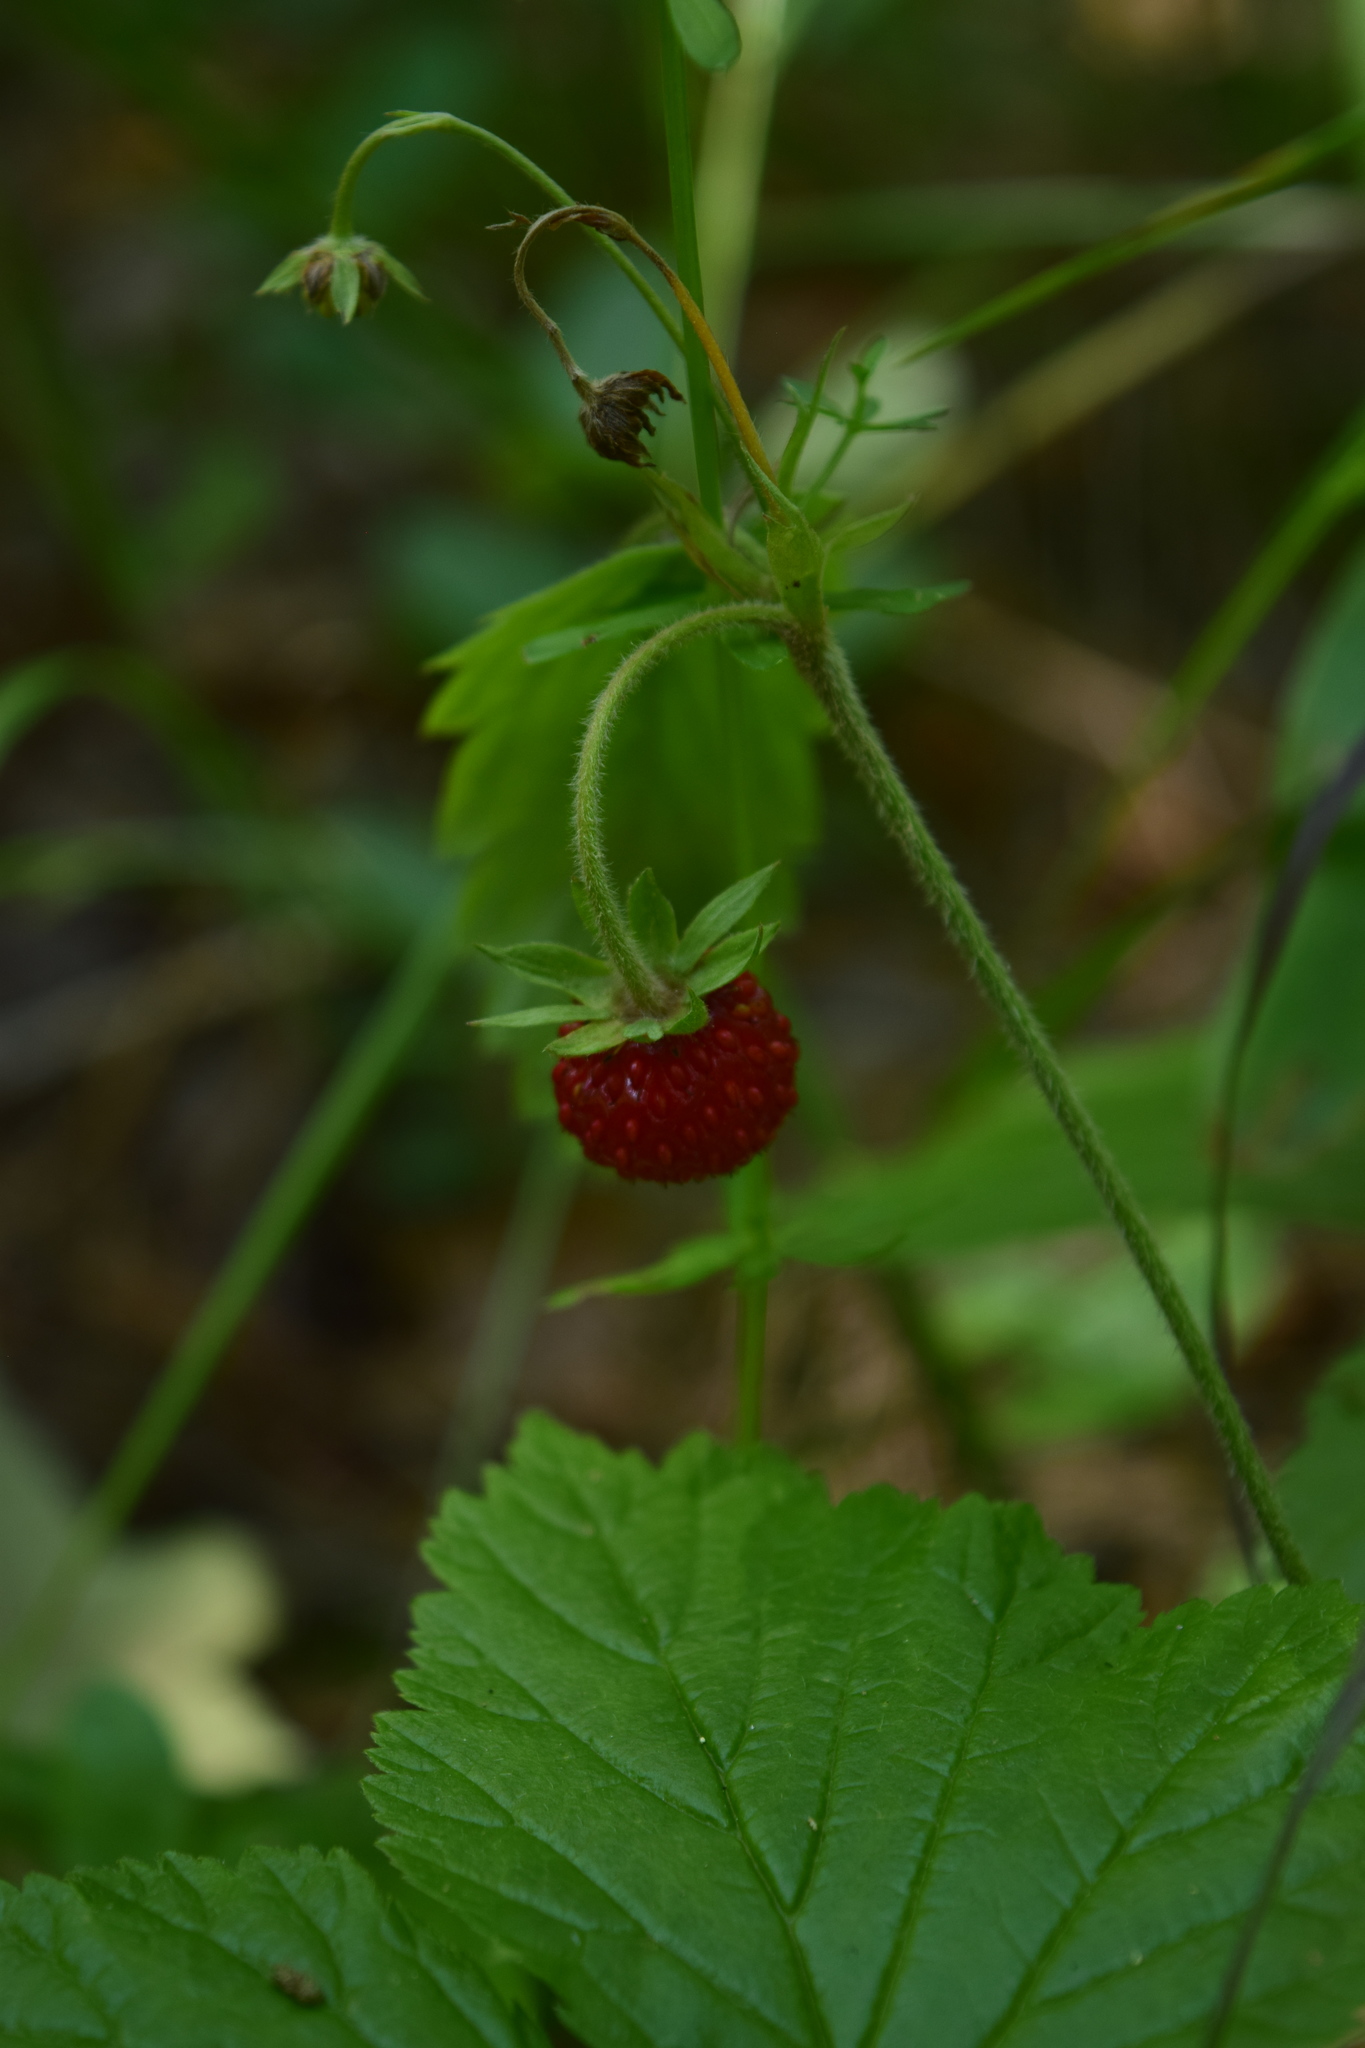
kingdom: Plantae
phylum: Tracheophyta
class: Magnoliopsida
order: Rosales
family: Rosaceae
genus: Fragaria
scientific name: Fragaria vesca
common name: Wild strawberry
